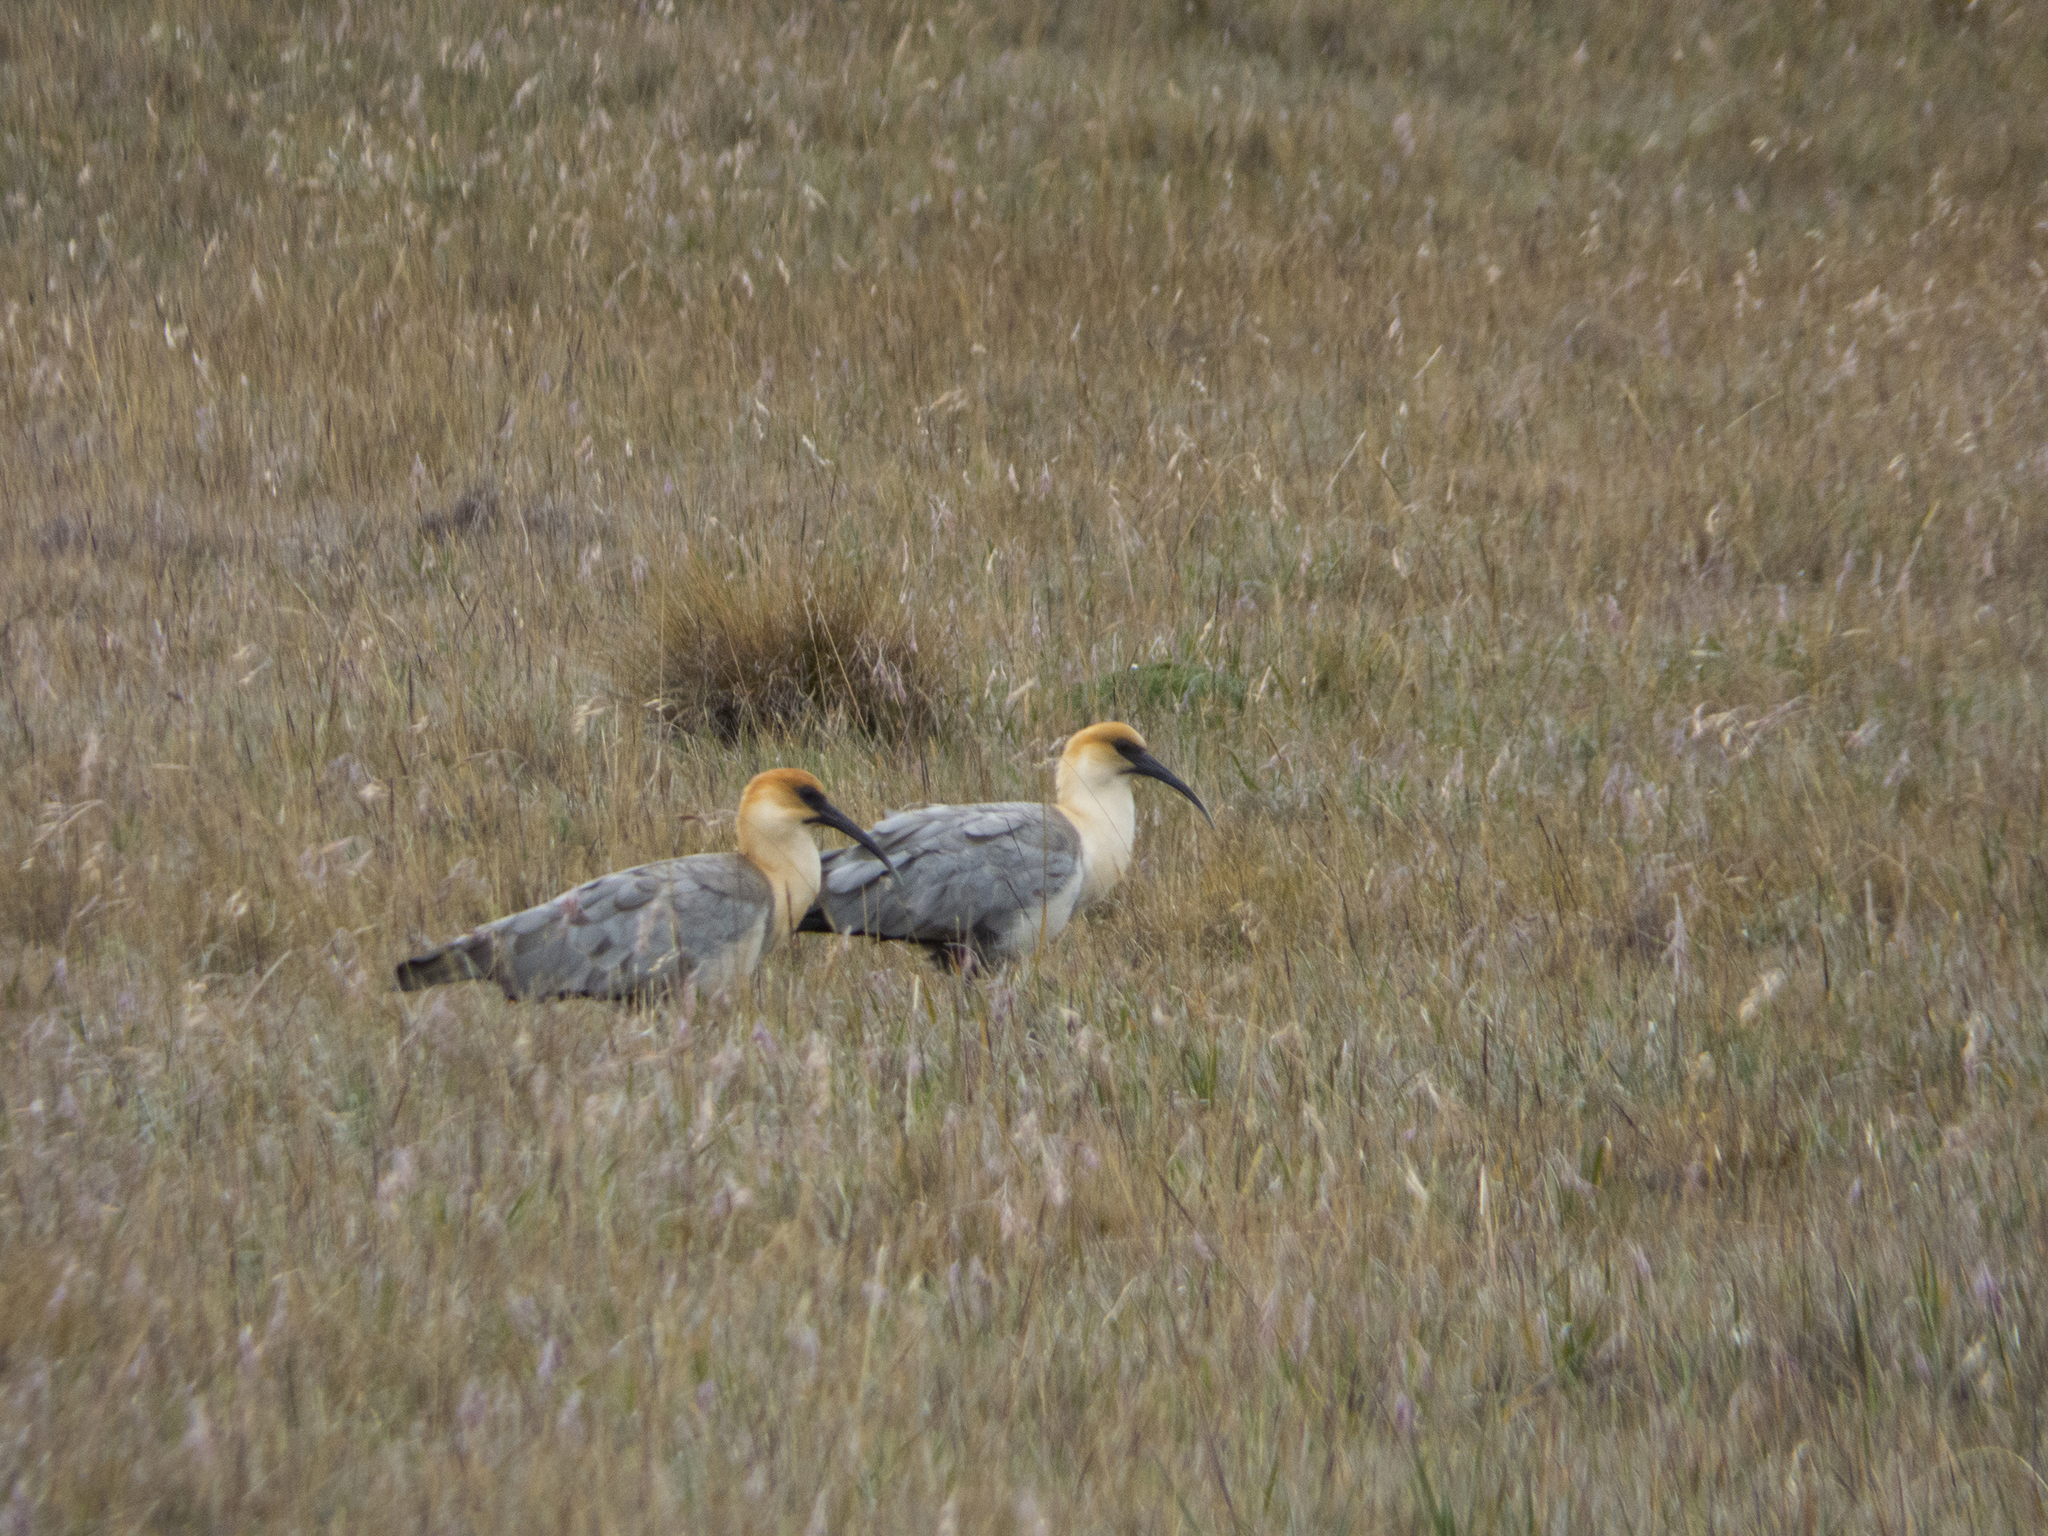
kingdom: Animalia
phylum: Chordata
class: Aves
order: Pelecaniformes
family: Threskiornithidae
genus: Theristicus
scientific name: Theristicus melanopis
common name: Black-faced ibis
